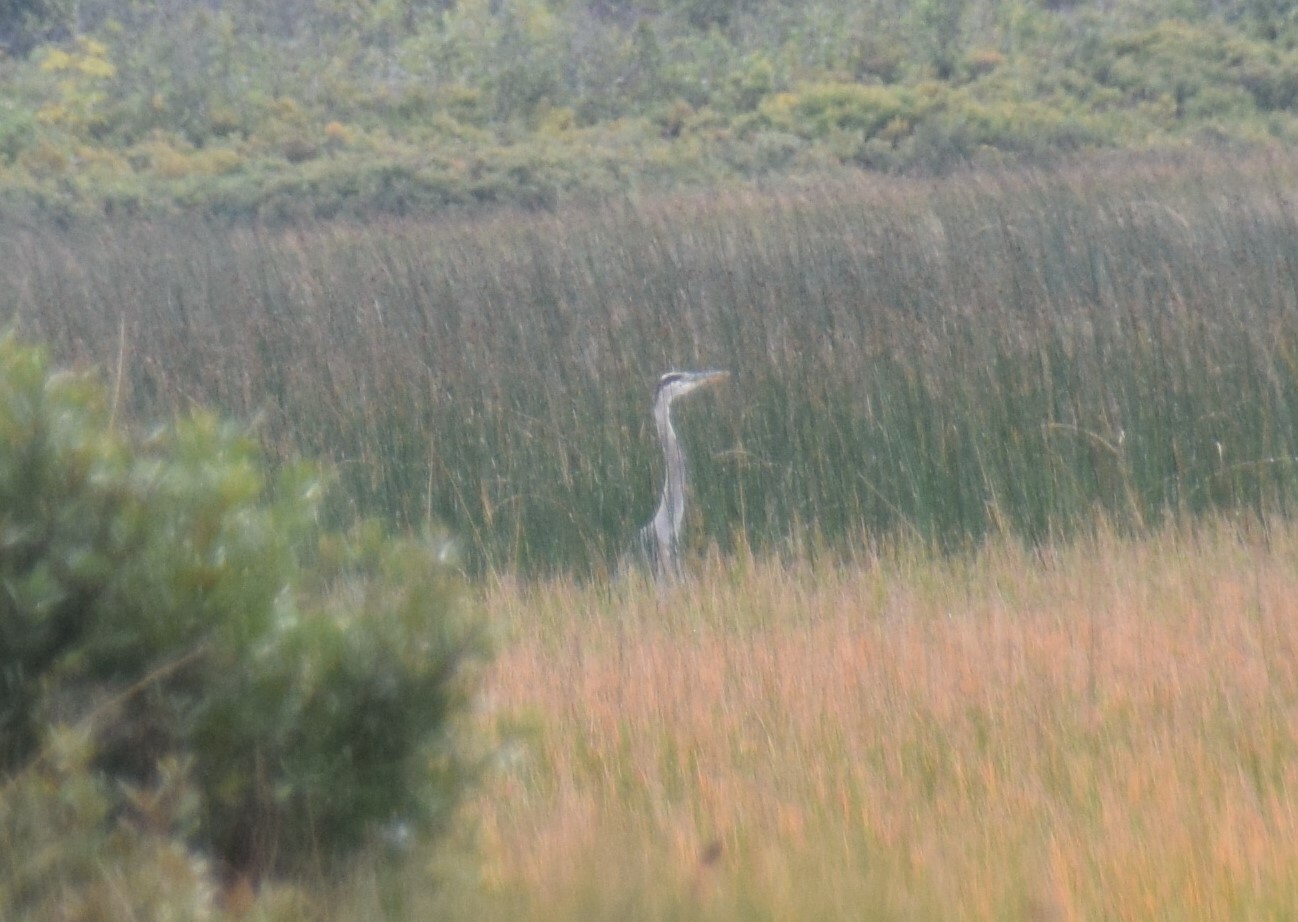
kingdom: Animalia
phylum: Chordata
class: Aves
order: Pelecaniformes
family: Ardeidae
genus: Ardea
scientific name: Ardea herodias
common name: Great blue heron
